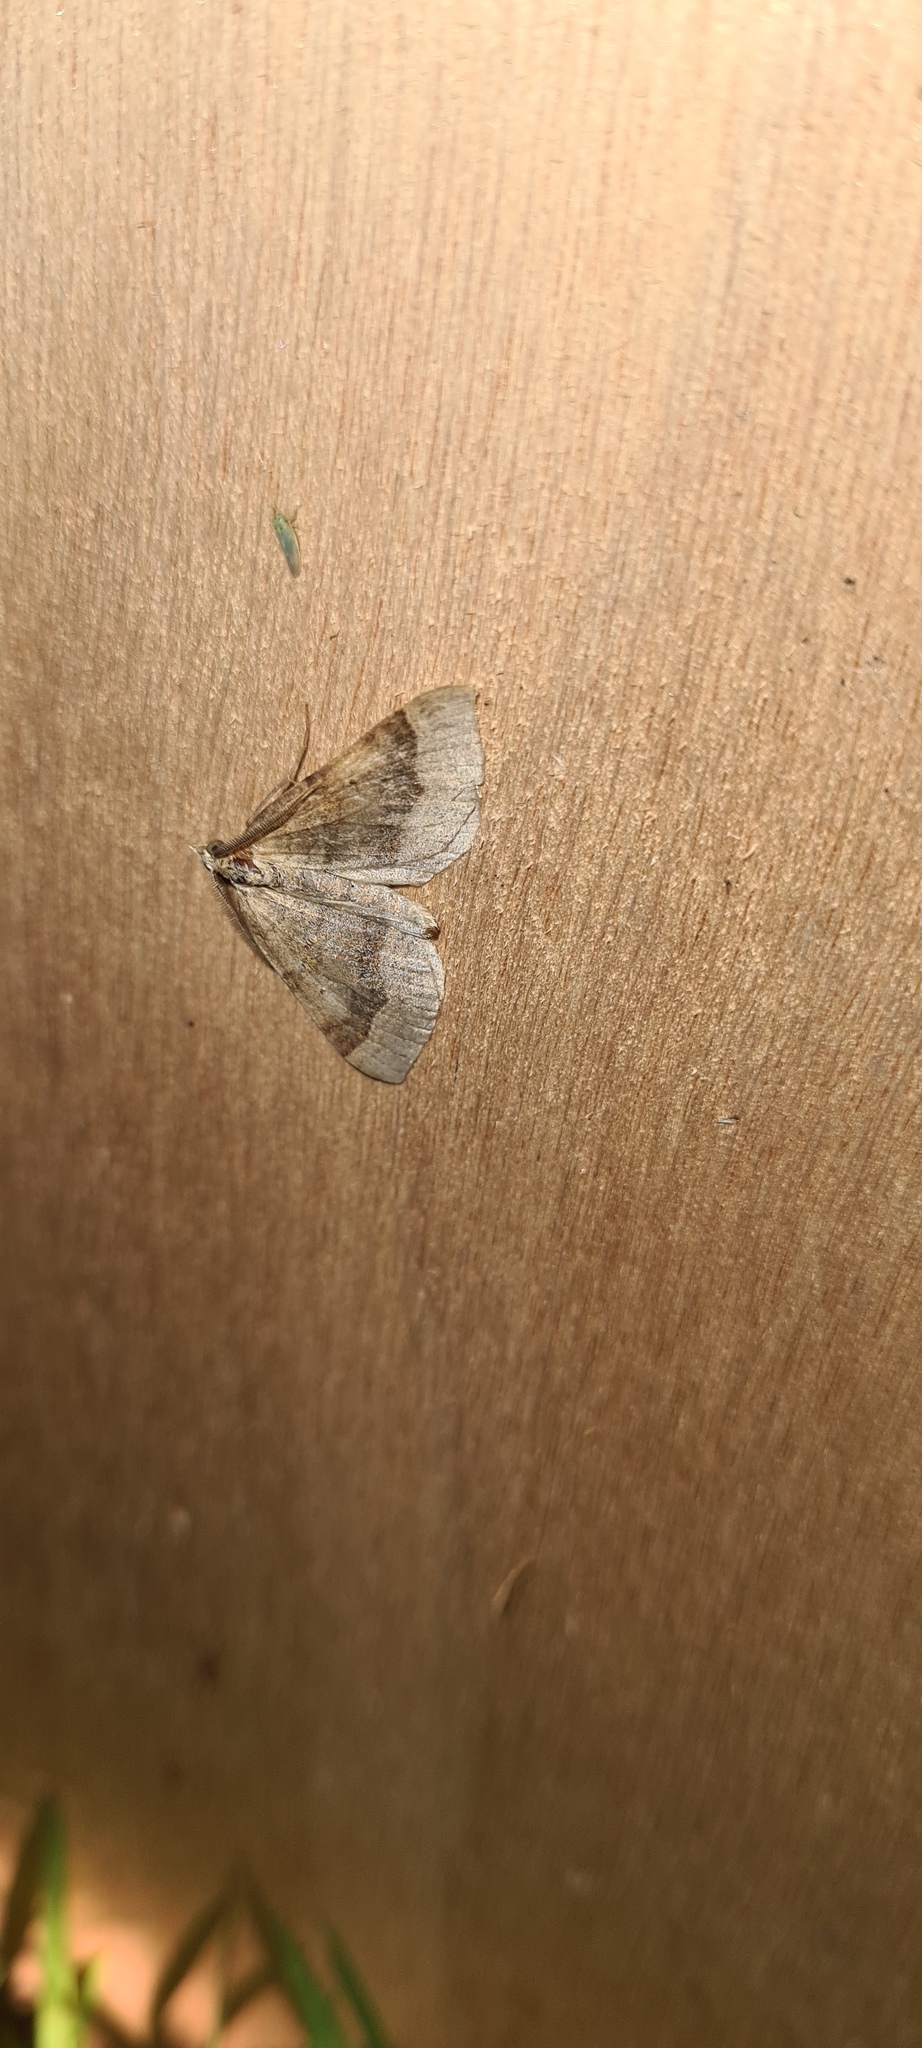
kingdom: Animalia
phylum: Arthropoda
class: Insecta
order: Lepidoptera
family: Geometridae
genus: Scotopteryx
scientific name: Scotopteryx chenopodiata
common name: Shaded broad-bar
